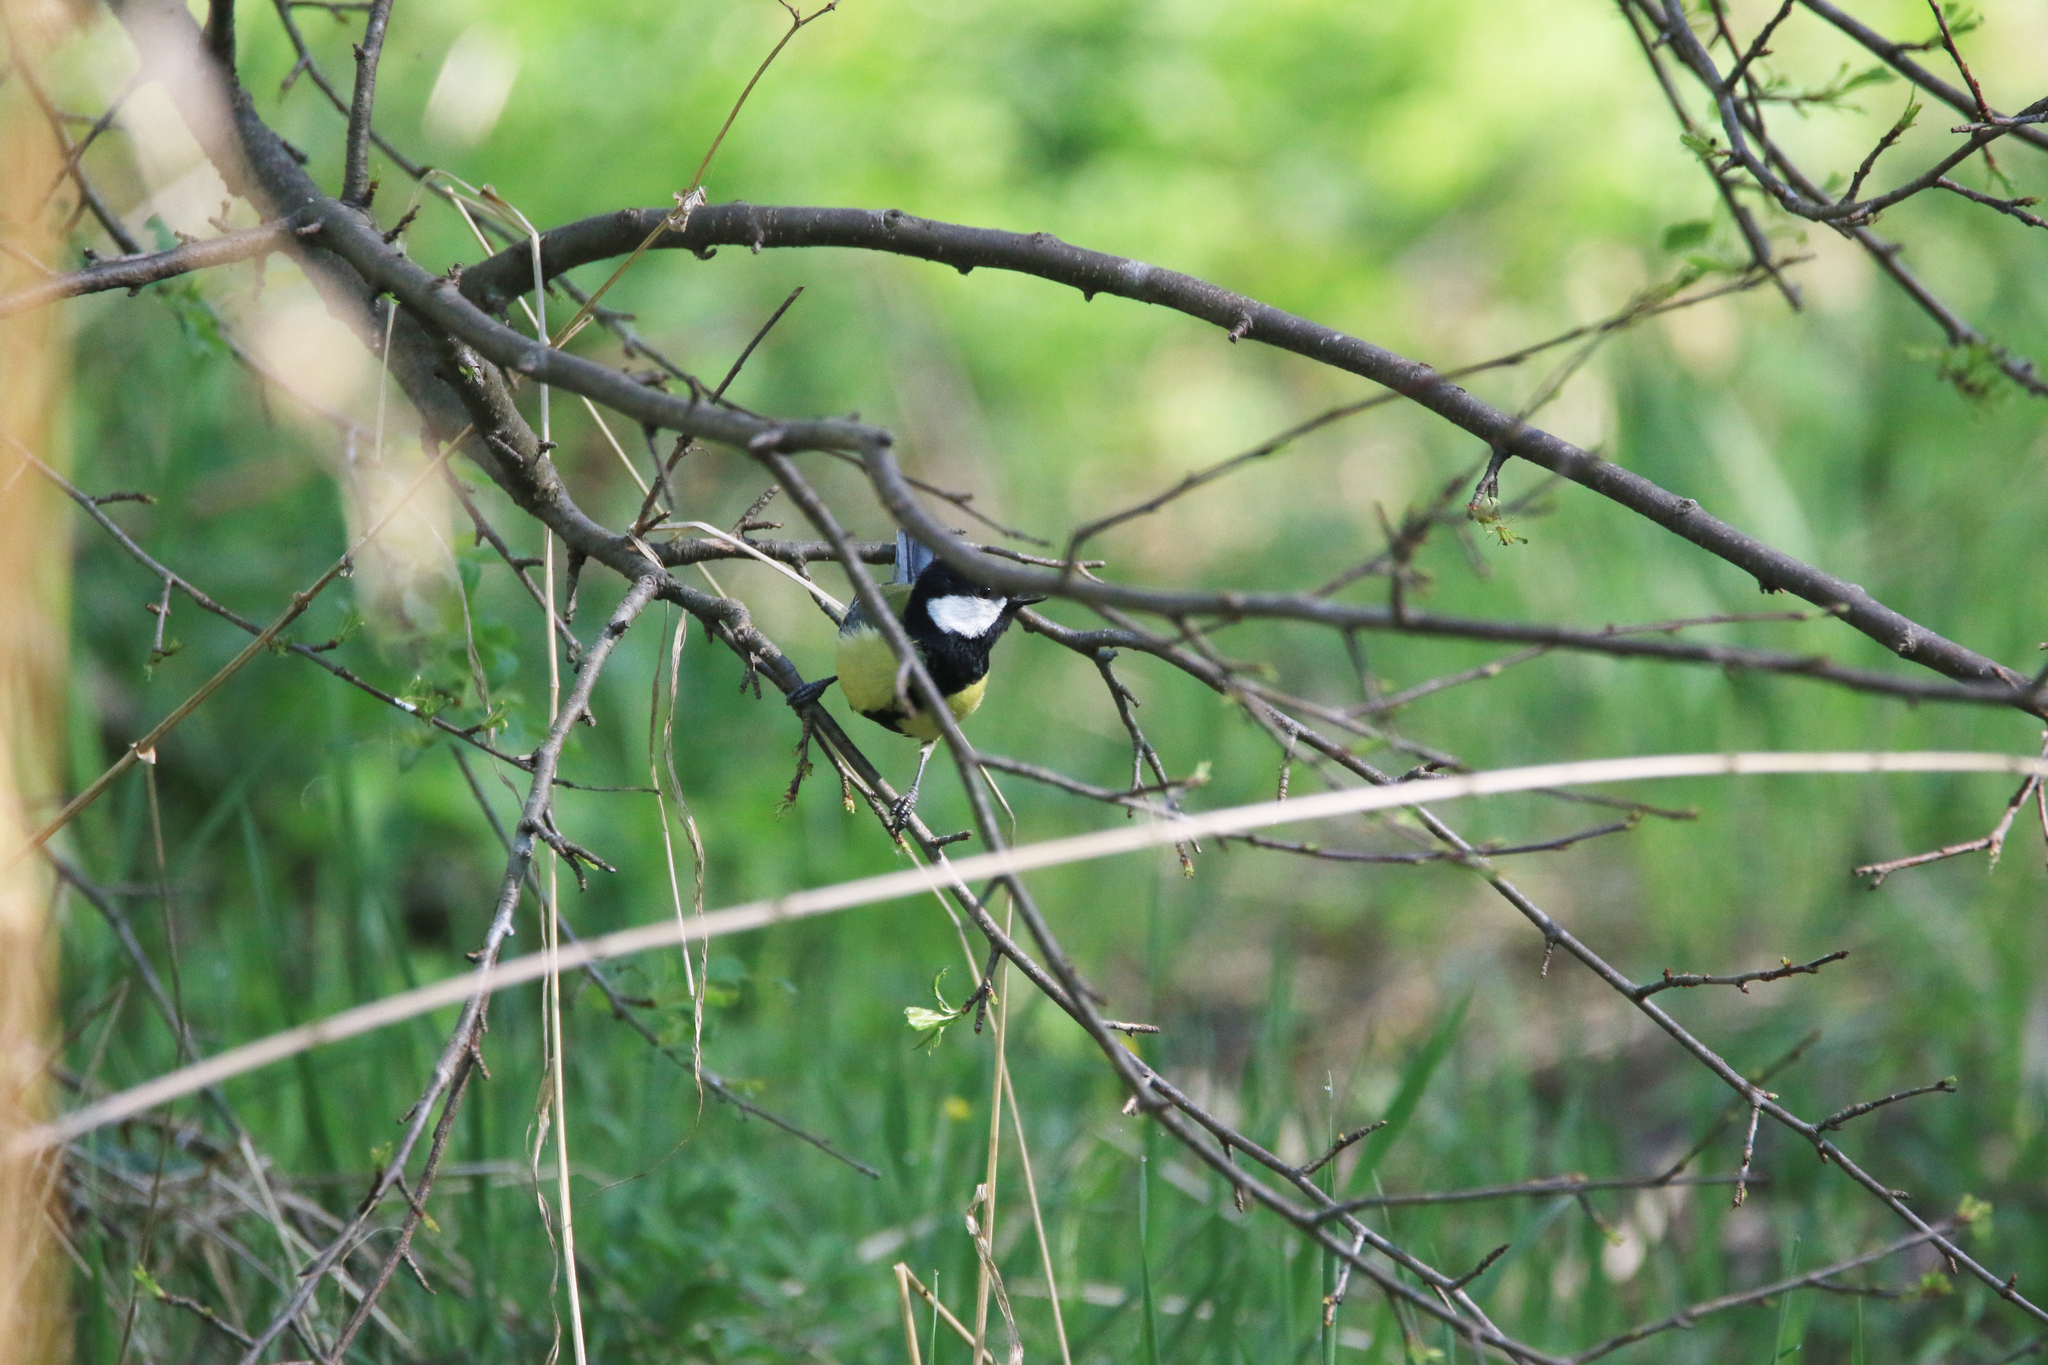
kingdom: Animalia
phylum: Chordata
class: Aves
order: Passeriformes
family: Paridae
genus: Parus
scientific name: Parus major
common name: Great tit
